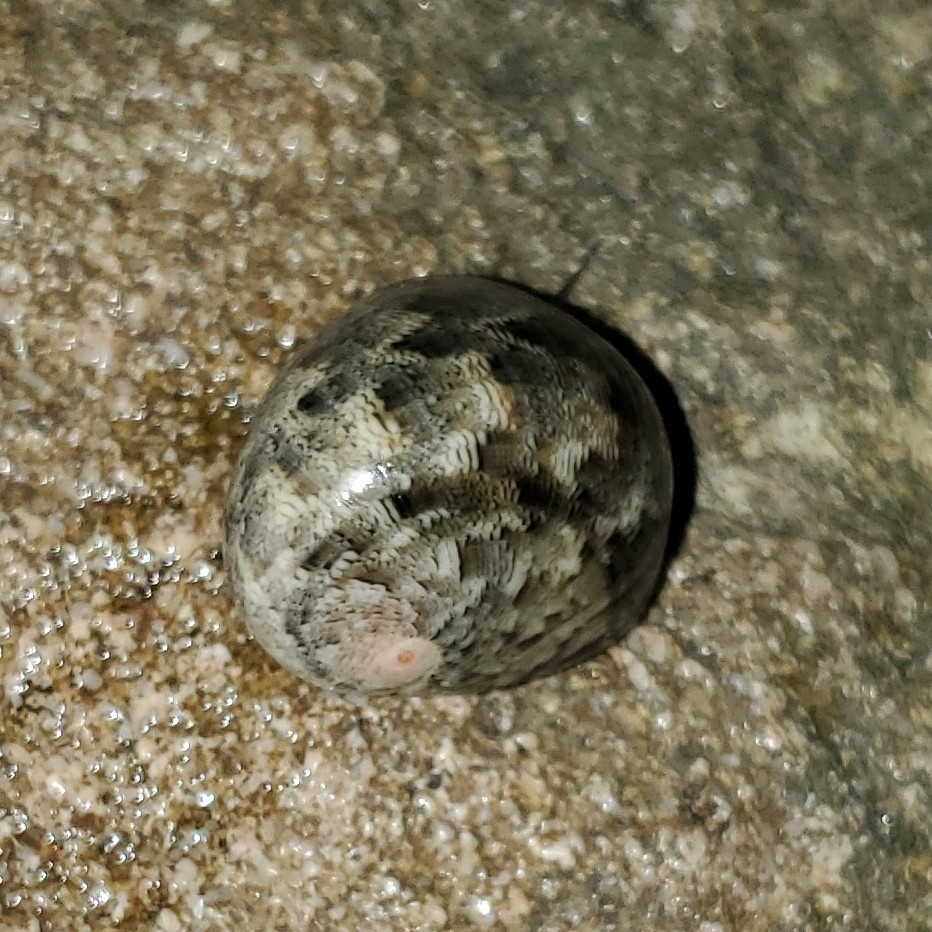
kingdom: Animalia
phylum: Mollusca
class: Gastropoda
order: Cycloneritida
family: Neritidae
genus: Nerita
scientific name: Nerita polita
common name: Polished nerite
